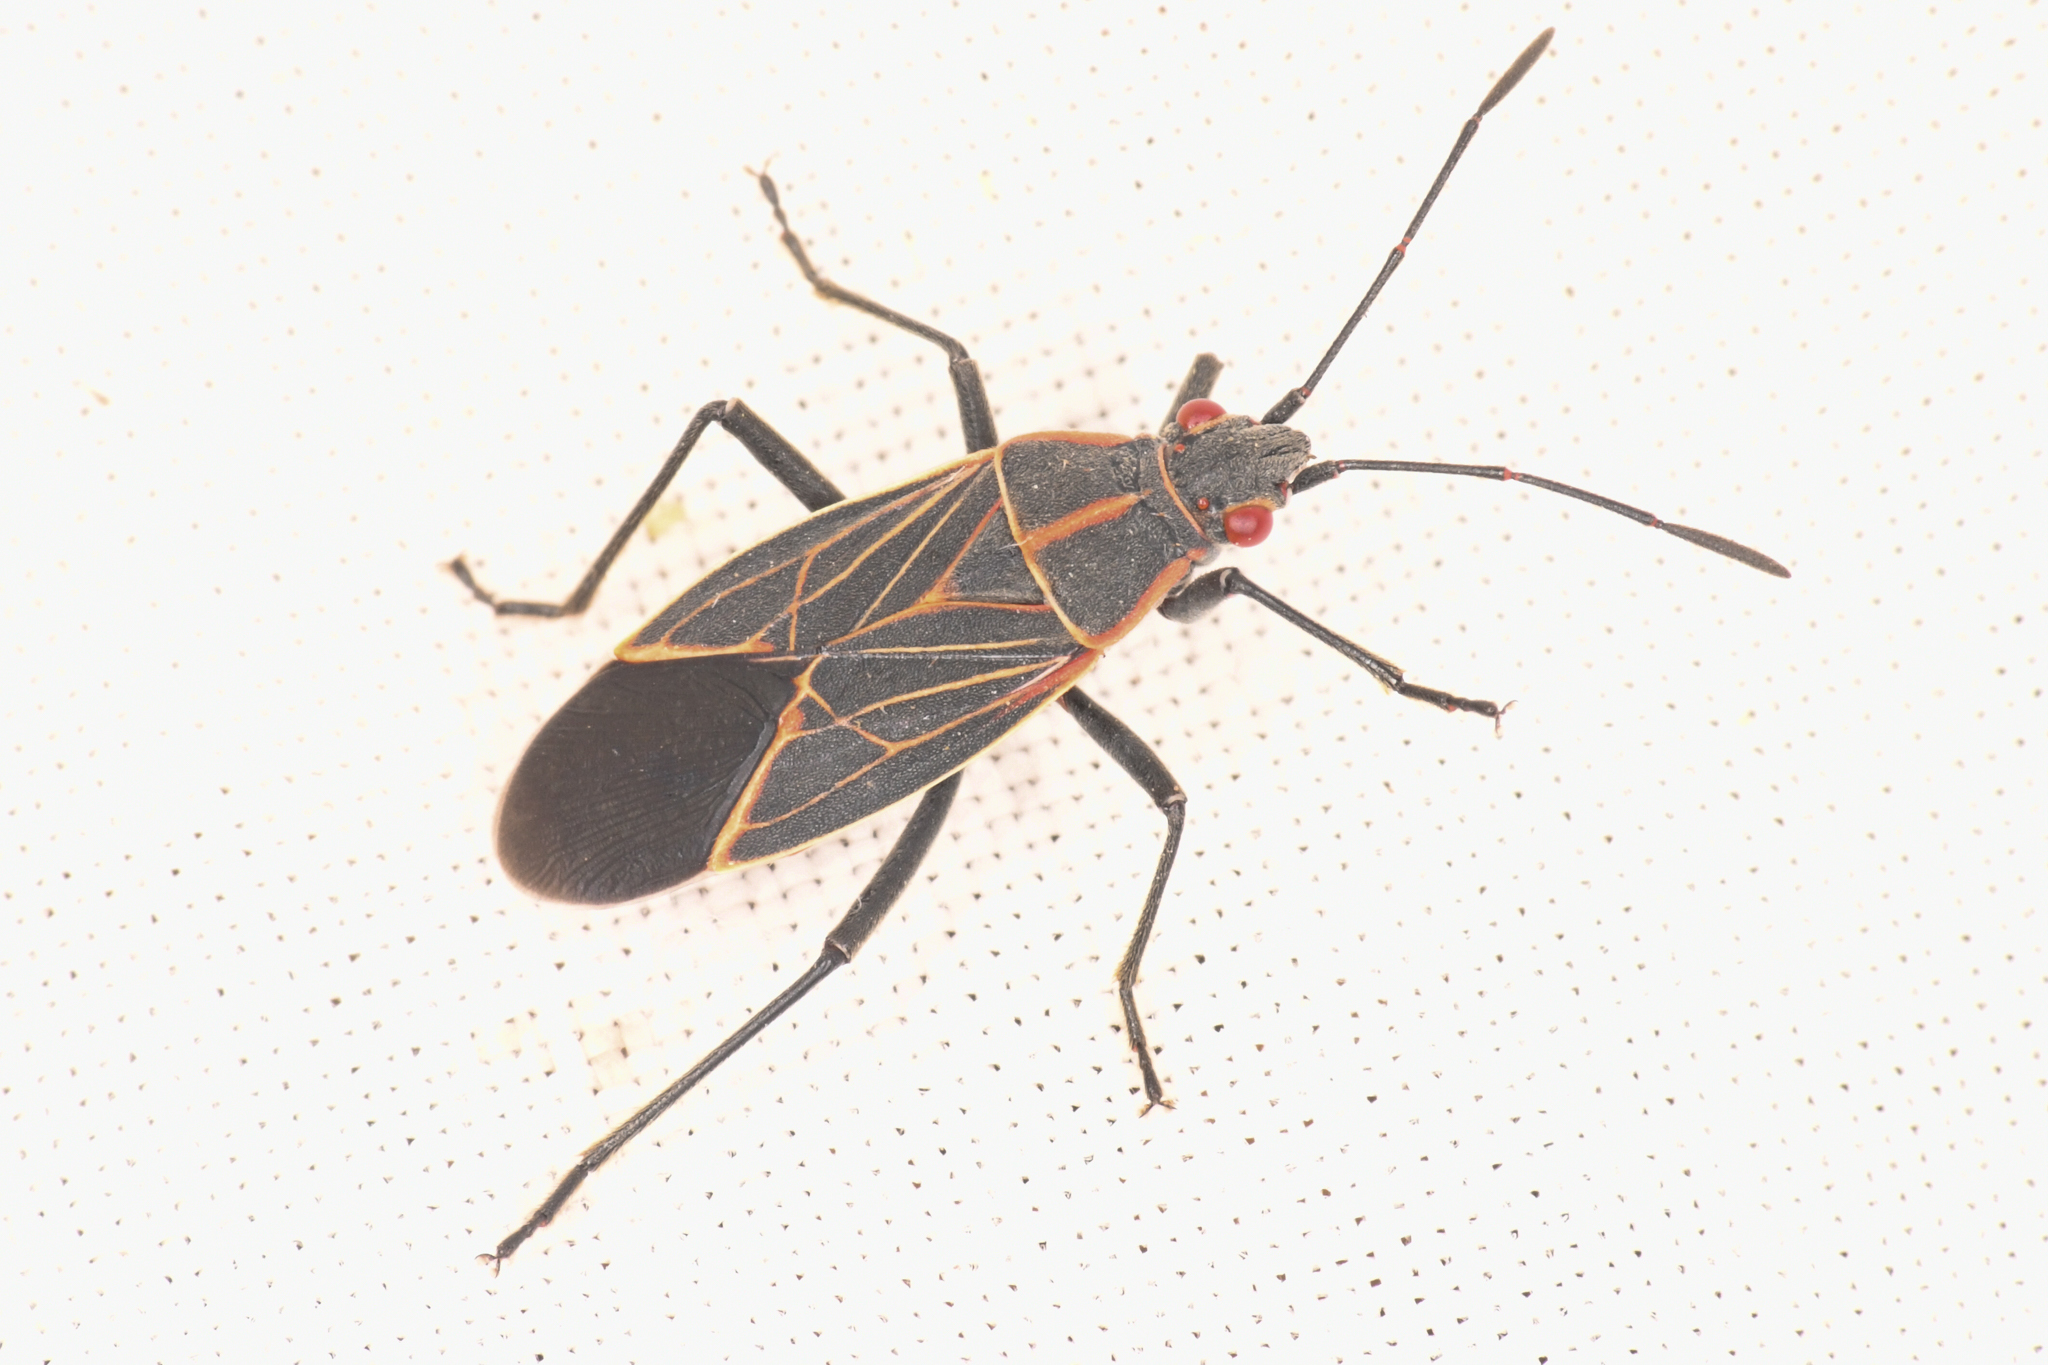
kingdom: Animalia
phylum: Arthropoda
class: Insecta
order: Hemiptera
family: Rhopalidae
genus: Boisea
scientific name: Boisea rubrolineata
